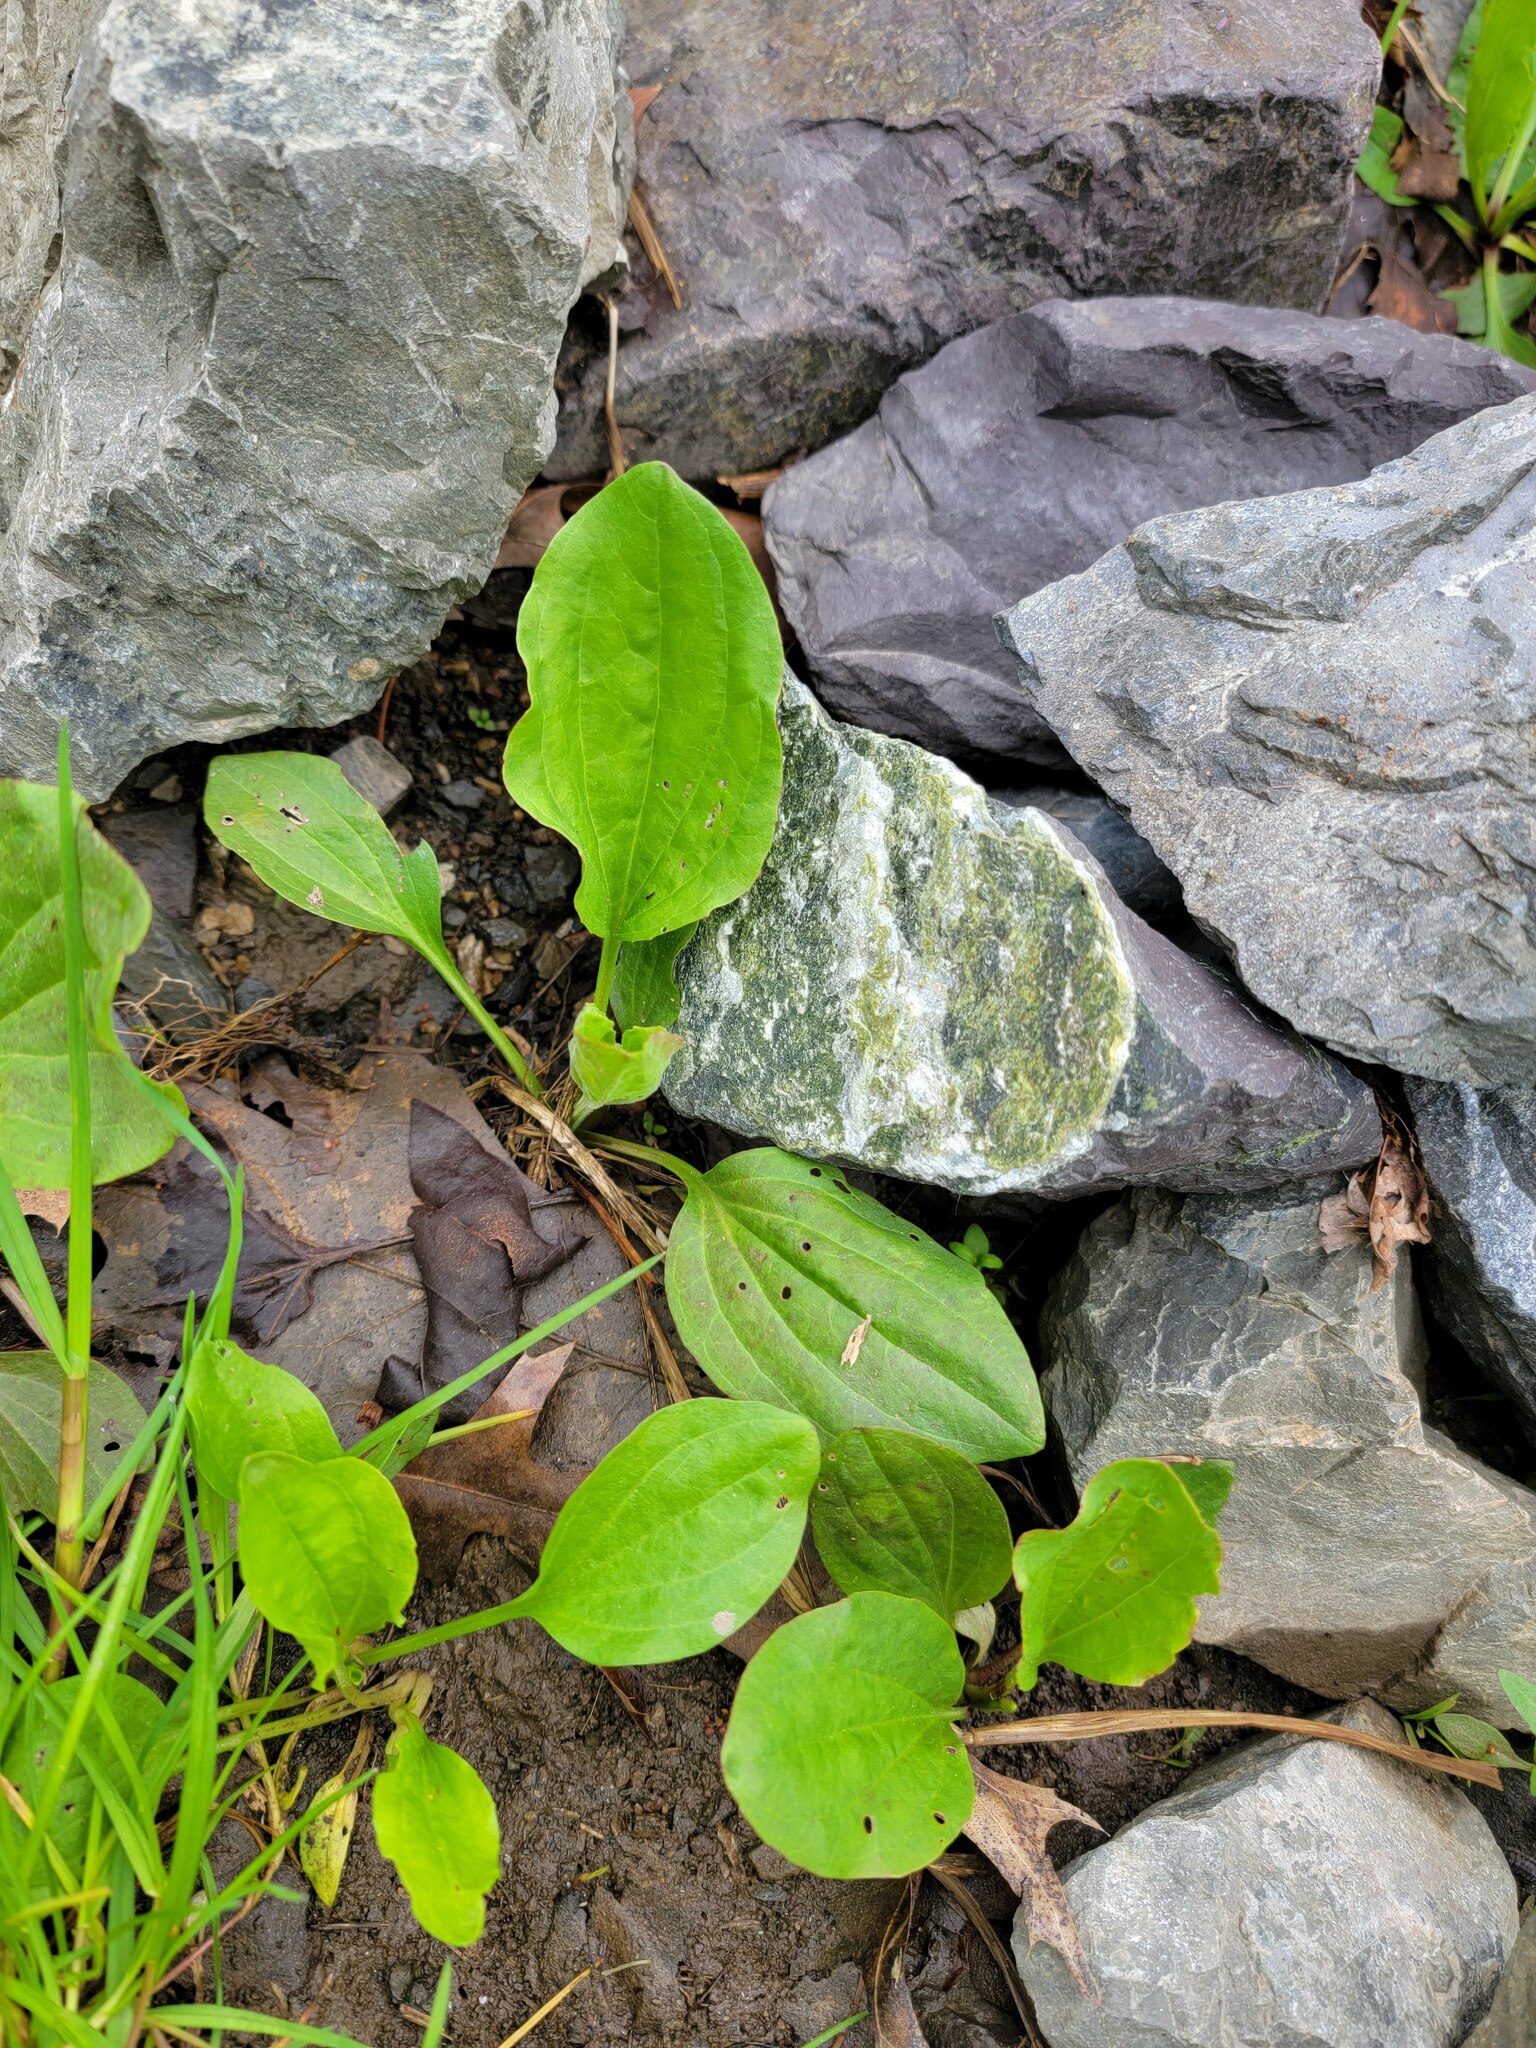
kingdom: Plantae
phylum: Tracheophyta
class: Magnoliopsida
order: Lamiales
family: Plantaginaceae
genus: Plantago
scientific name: Plantago major
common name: Common plantain
